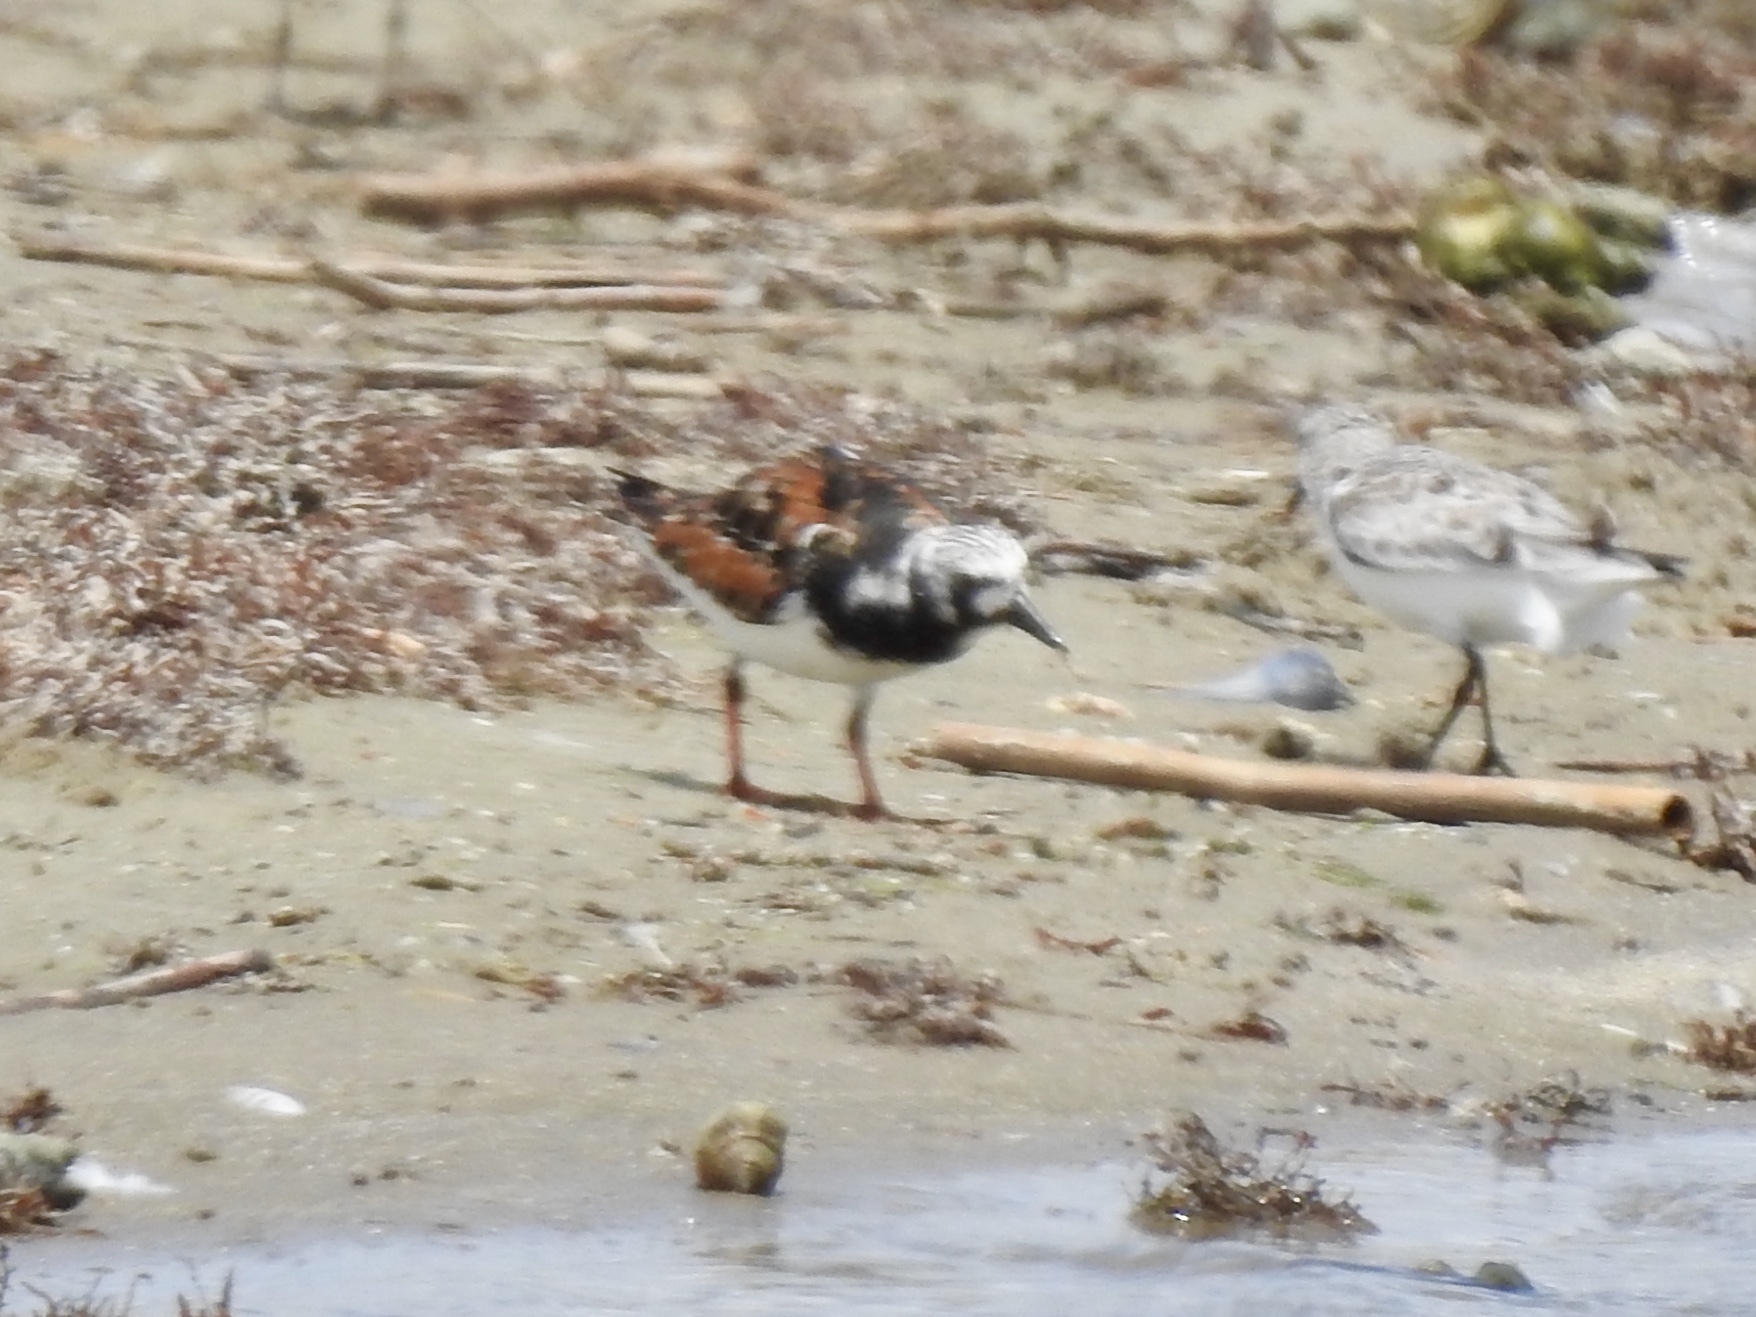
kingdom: Animalia
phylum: Chordata
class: Aves
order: Charadriiformes
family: Scolopacidae
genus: Arenaria
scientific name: Arenaria interpres
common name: Ruddy turnstone
